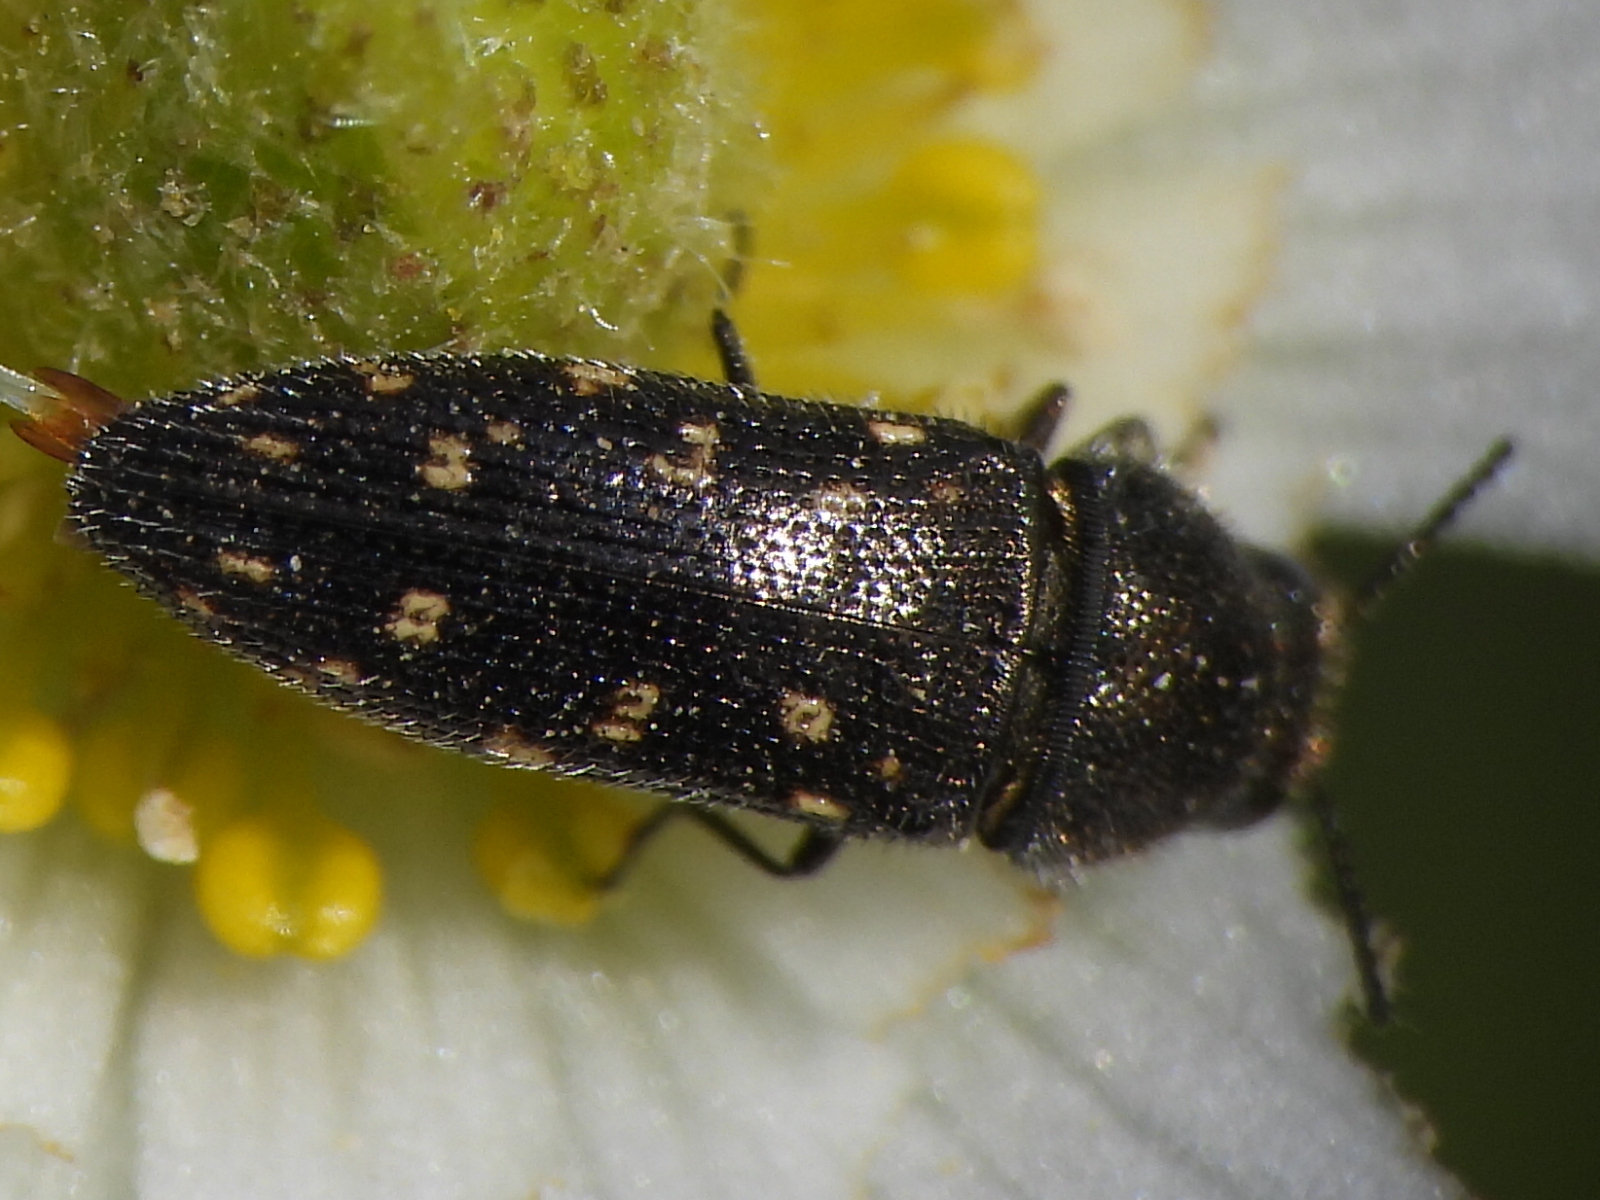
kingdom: Animalia
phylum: Arthropoda
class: Insecta
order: Coleoptera
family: Buprestidae
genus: Acmaeodera
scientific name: Acmaeodera tubulus
